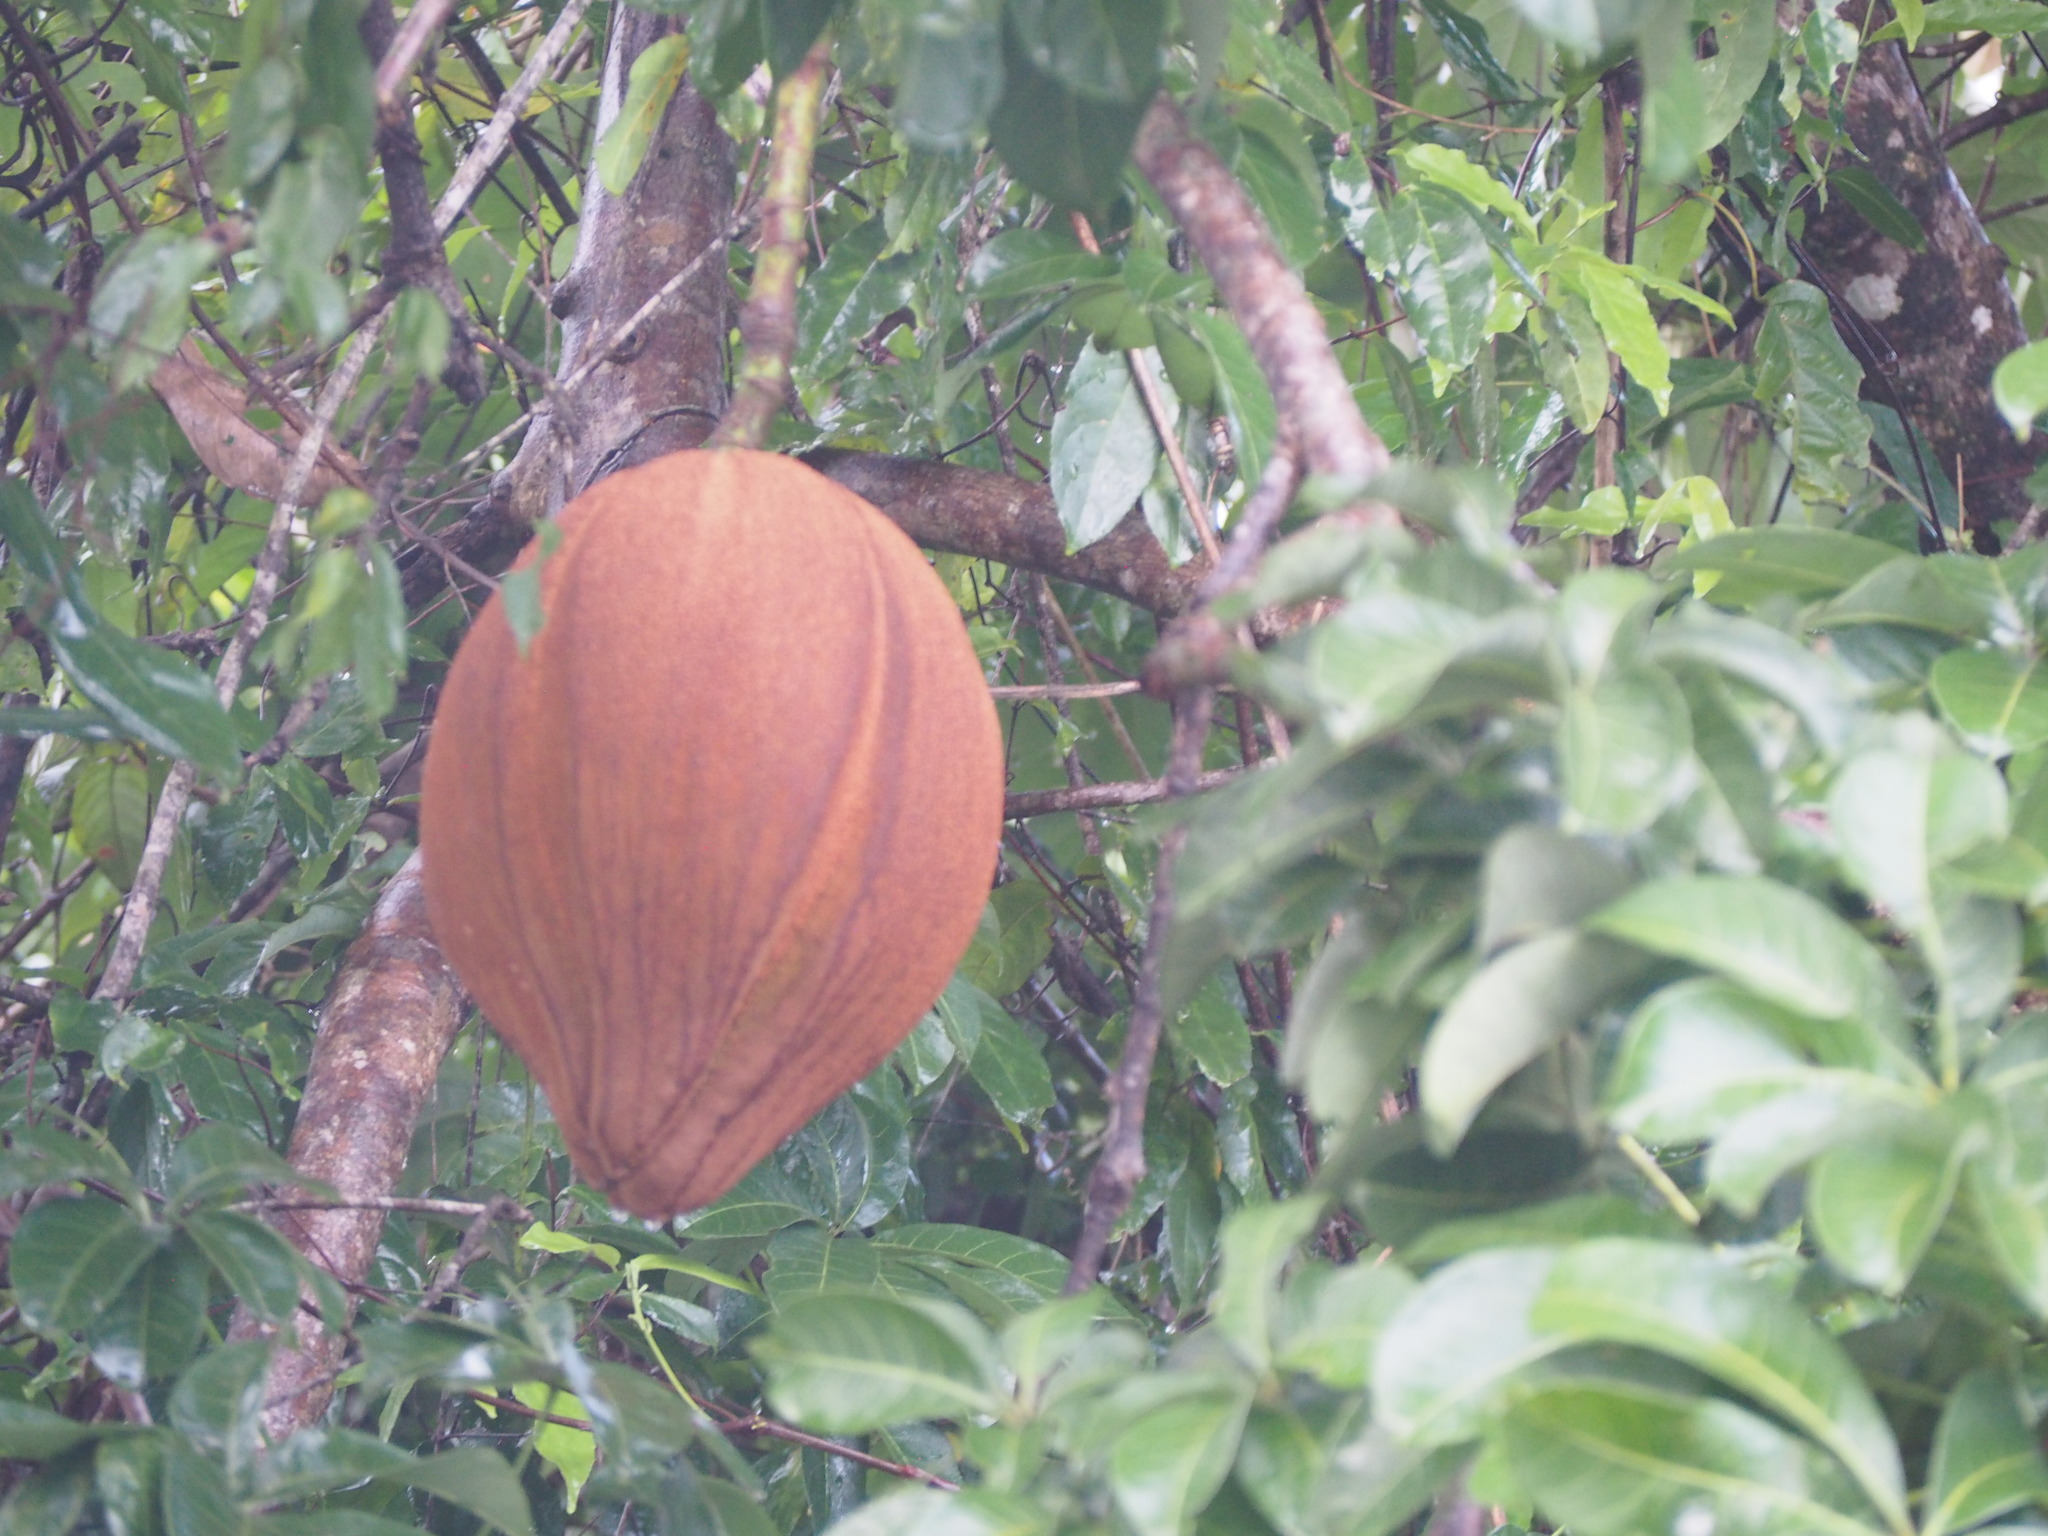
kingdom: Plantae
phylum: Tracheophyta
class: Magnoliopsida
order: Malvales
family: Malvaceae
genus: Pachira
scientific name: Pachira aquatica
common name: Provision-tree
